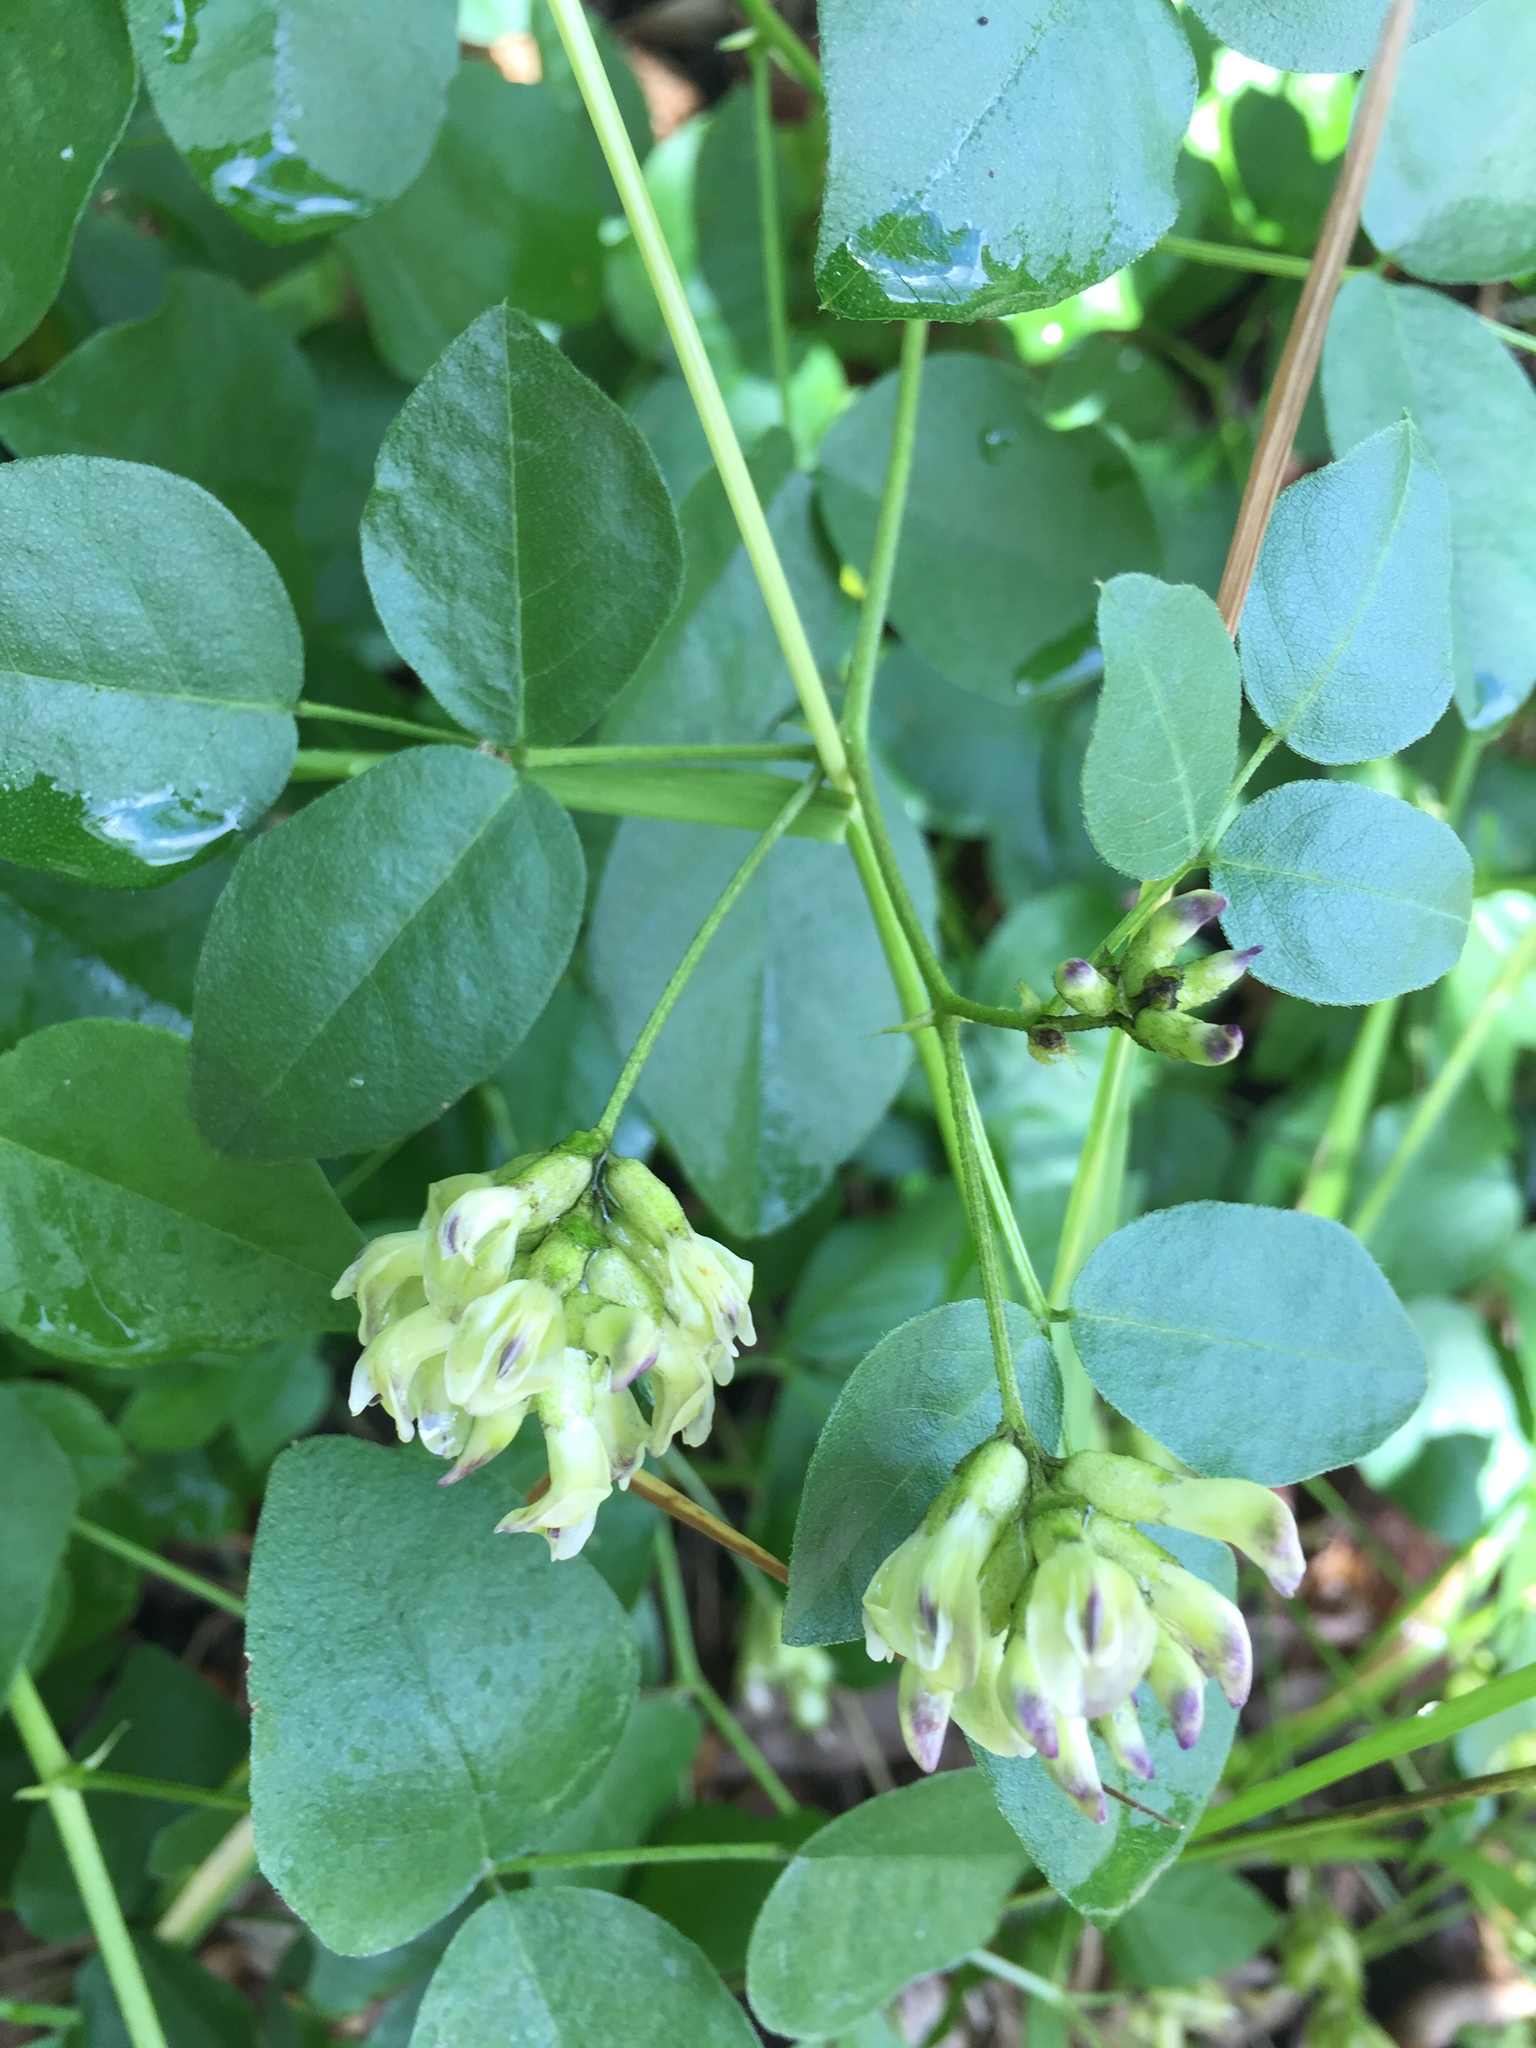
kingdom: Plantae
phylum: Tracheophyta
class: Magnoliopsida
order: Fabales
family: Fabaceae
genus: Rupertia
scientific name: Rupertia physodes
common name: California-tea
